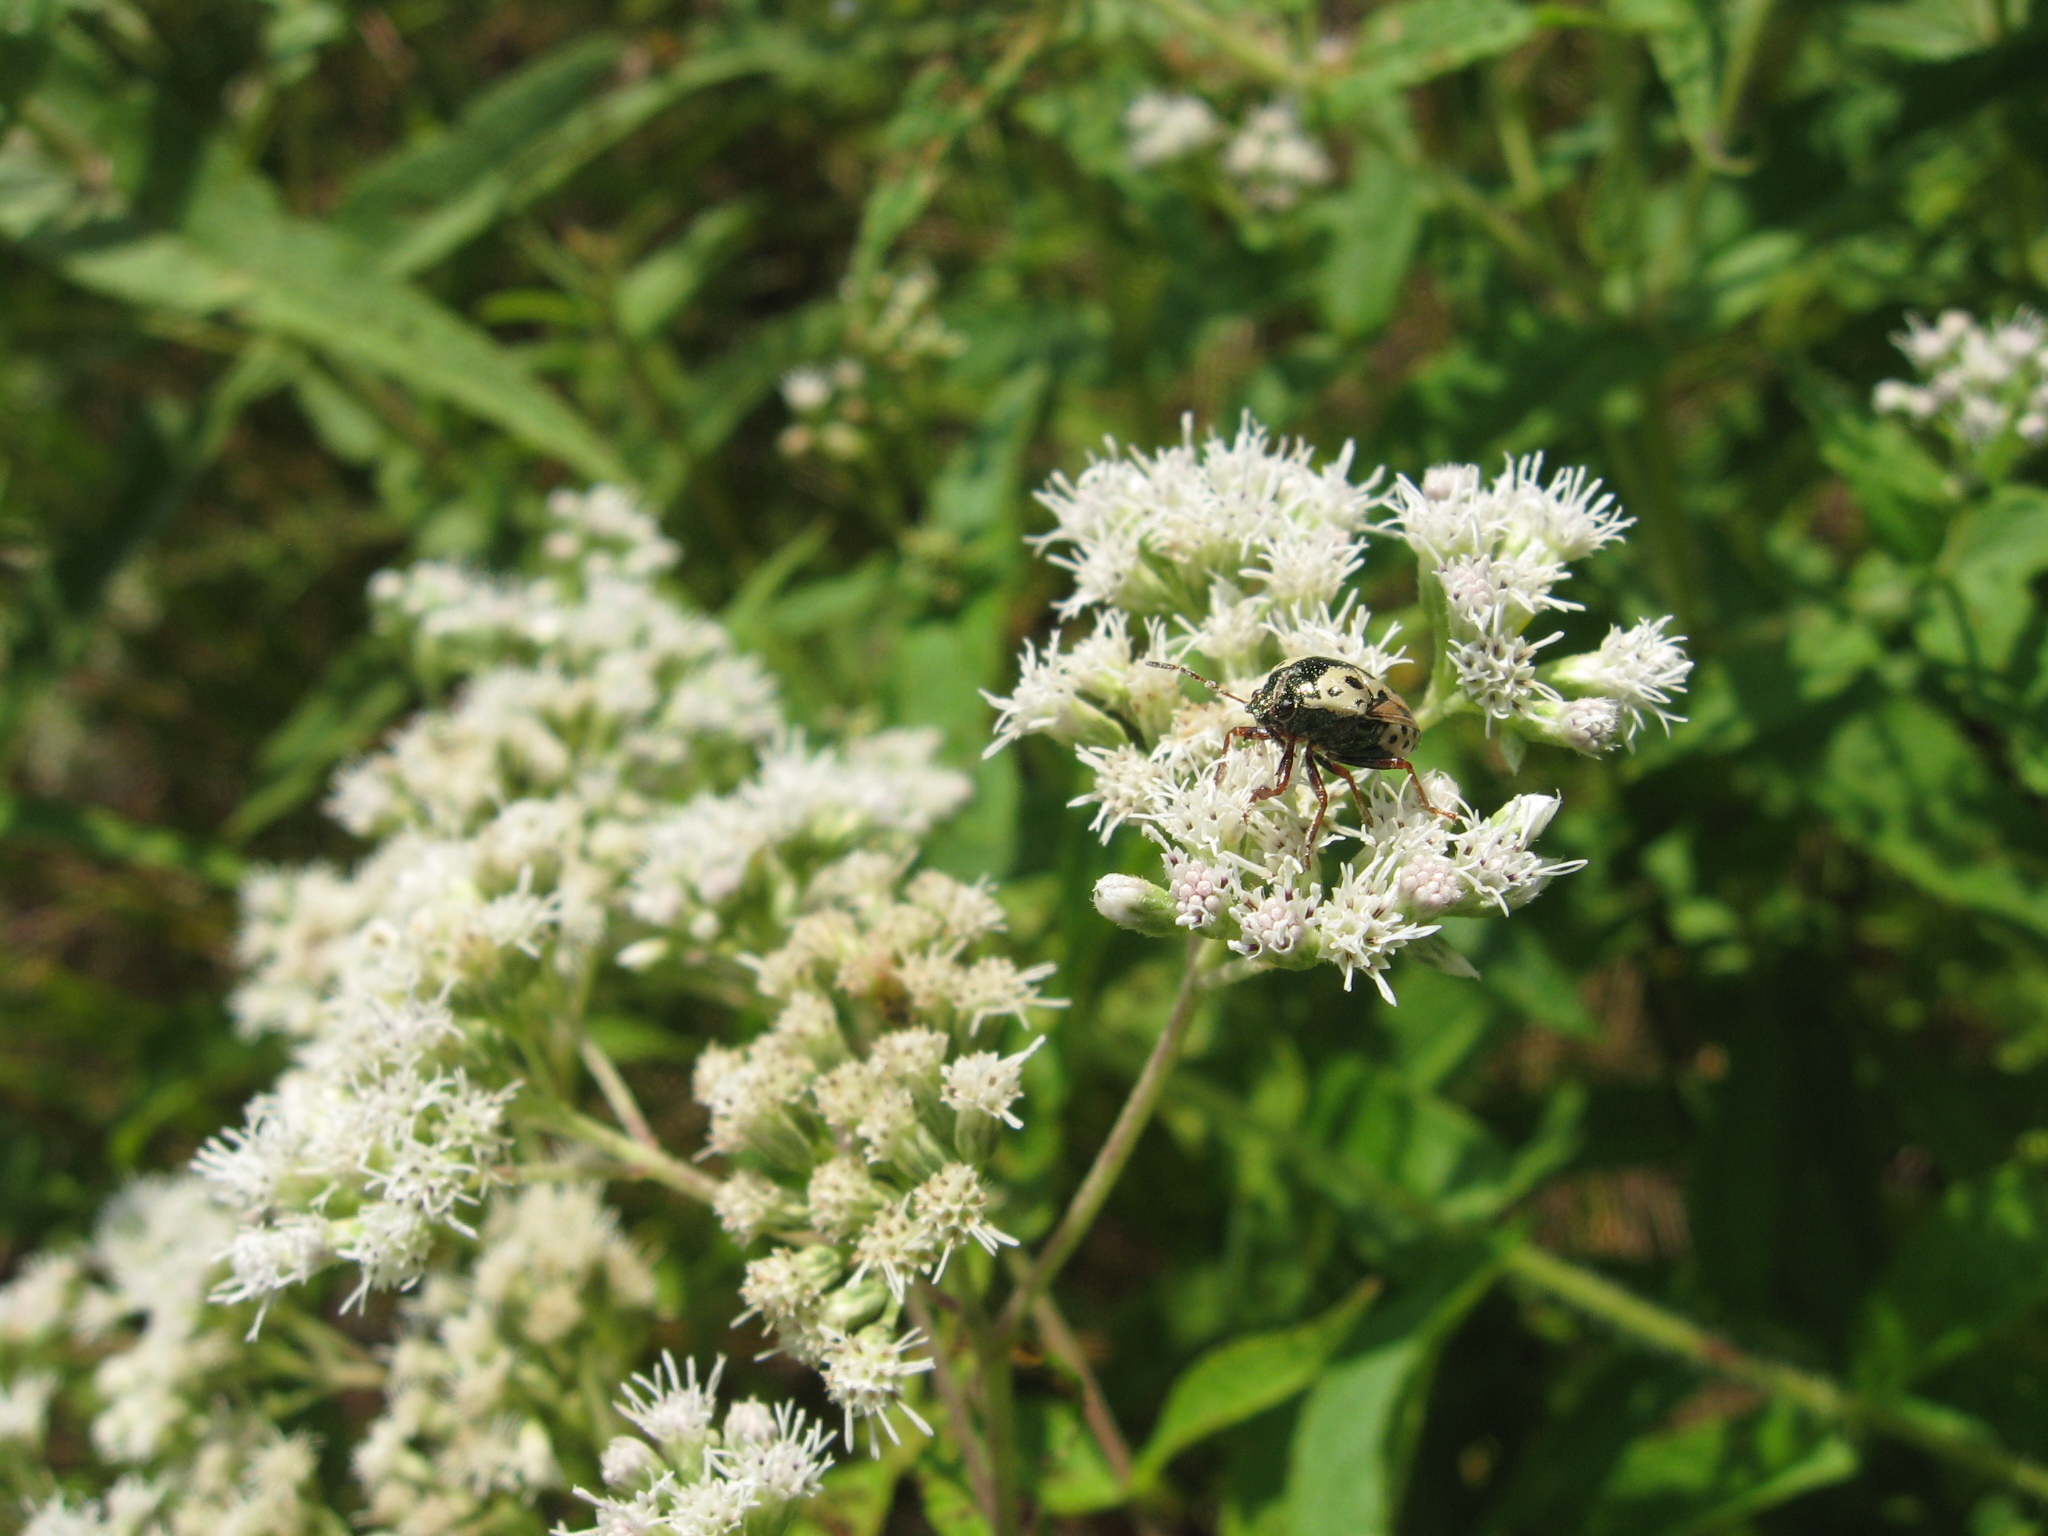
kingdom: Animalia
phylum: Arthropoda
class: Insecta
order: Hemiptera
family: Pentatomidae
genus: Stiretrus
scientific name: Stiretrus anchorago
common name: Anchor stink bug
